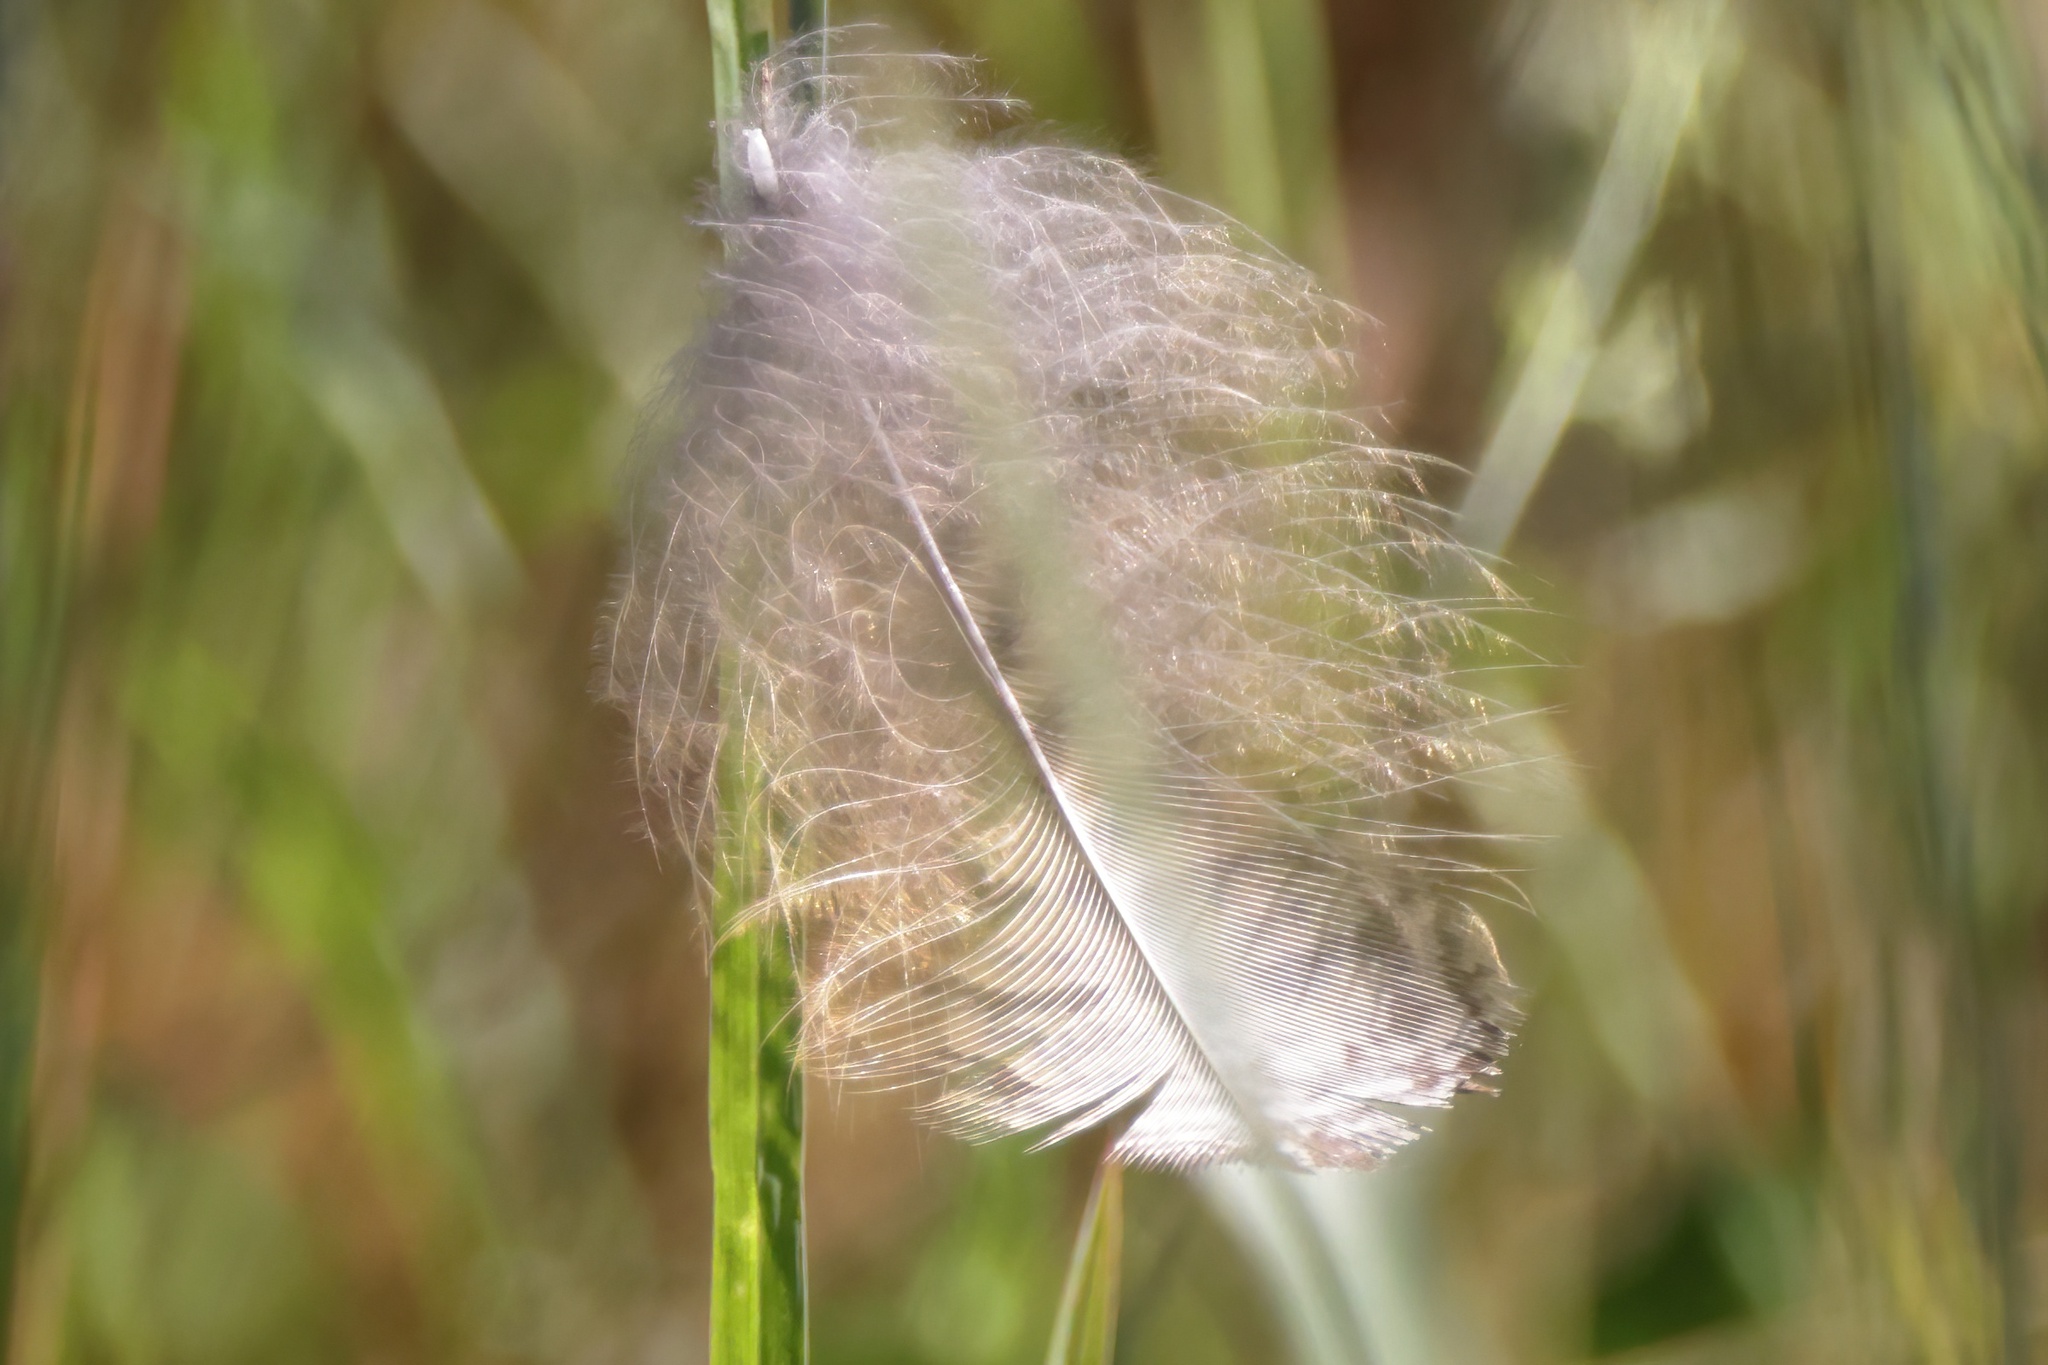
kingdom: Animalia
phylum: Chordata
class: Aves
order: Strigiformes
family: Strigidae
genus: Bubo
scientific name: Bubo virginianus
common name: Great horned owl
